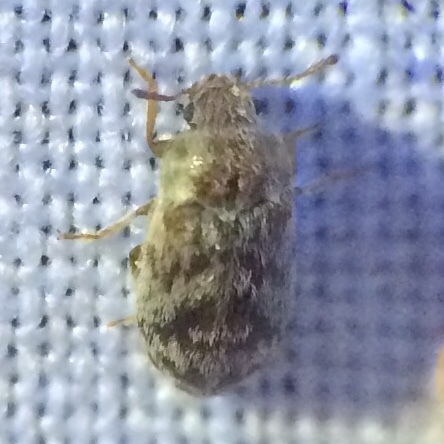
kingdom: Animalia
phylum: Arthropoda
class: Insecta
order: Coleoptera
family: Byturidae
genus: Xerasia
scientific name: Xerasia grisescens
